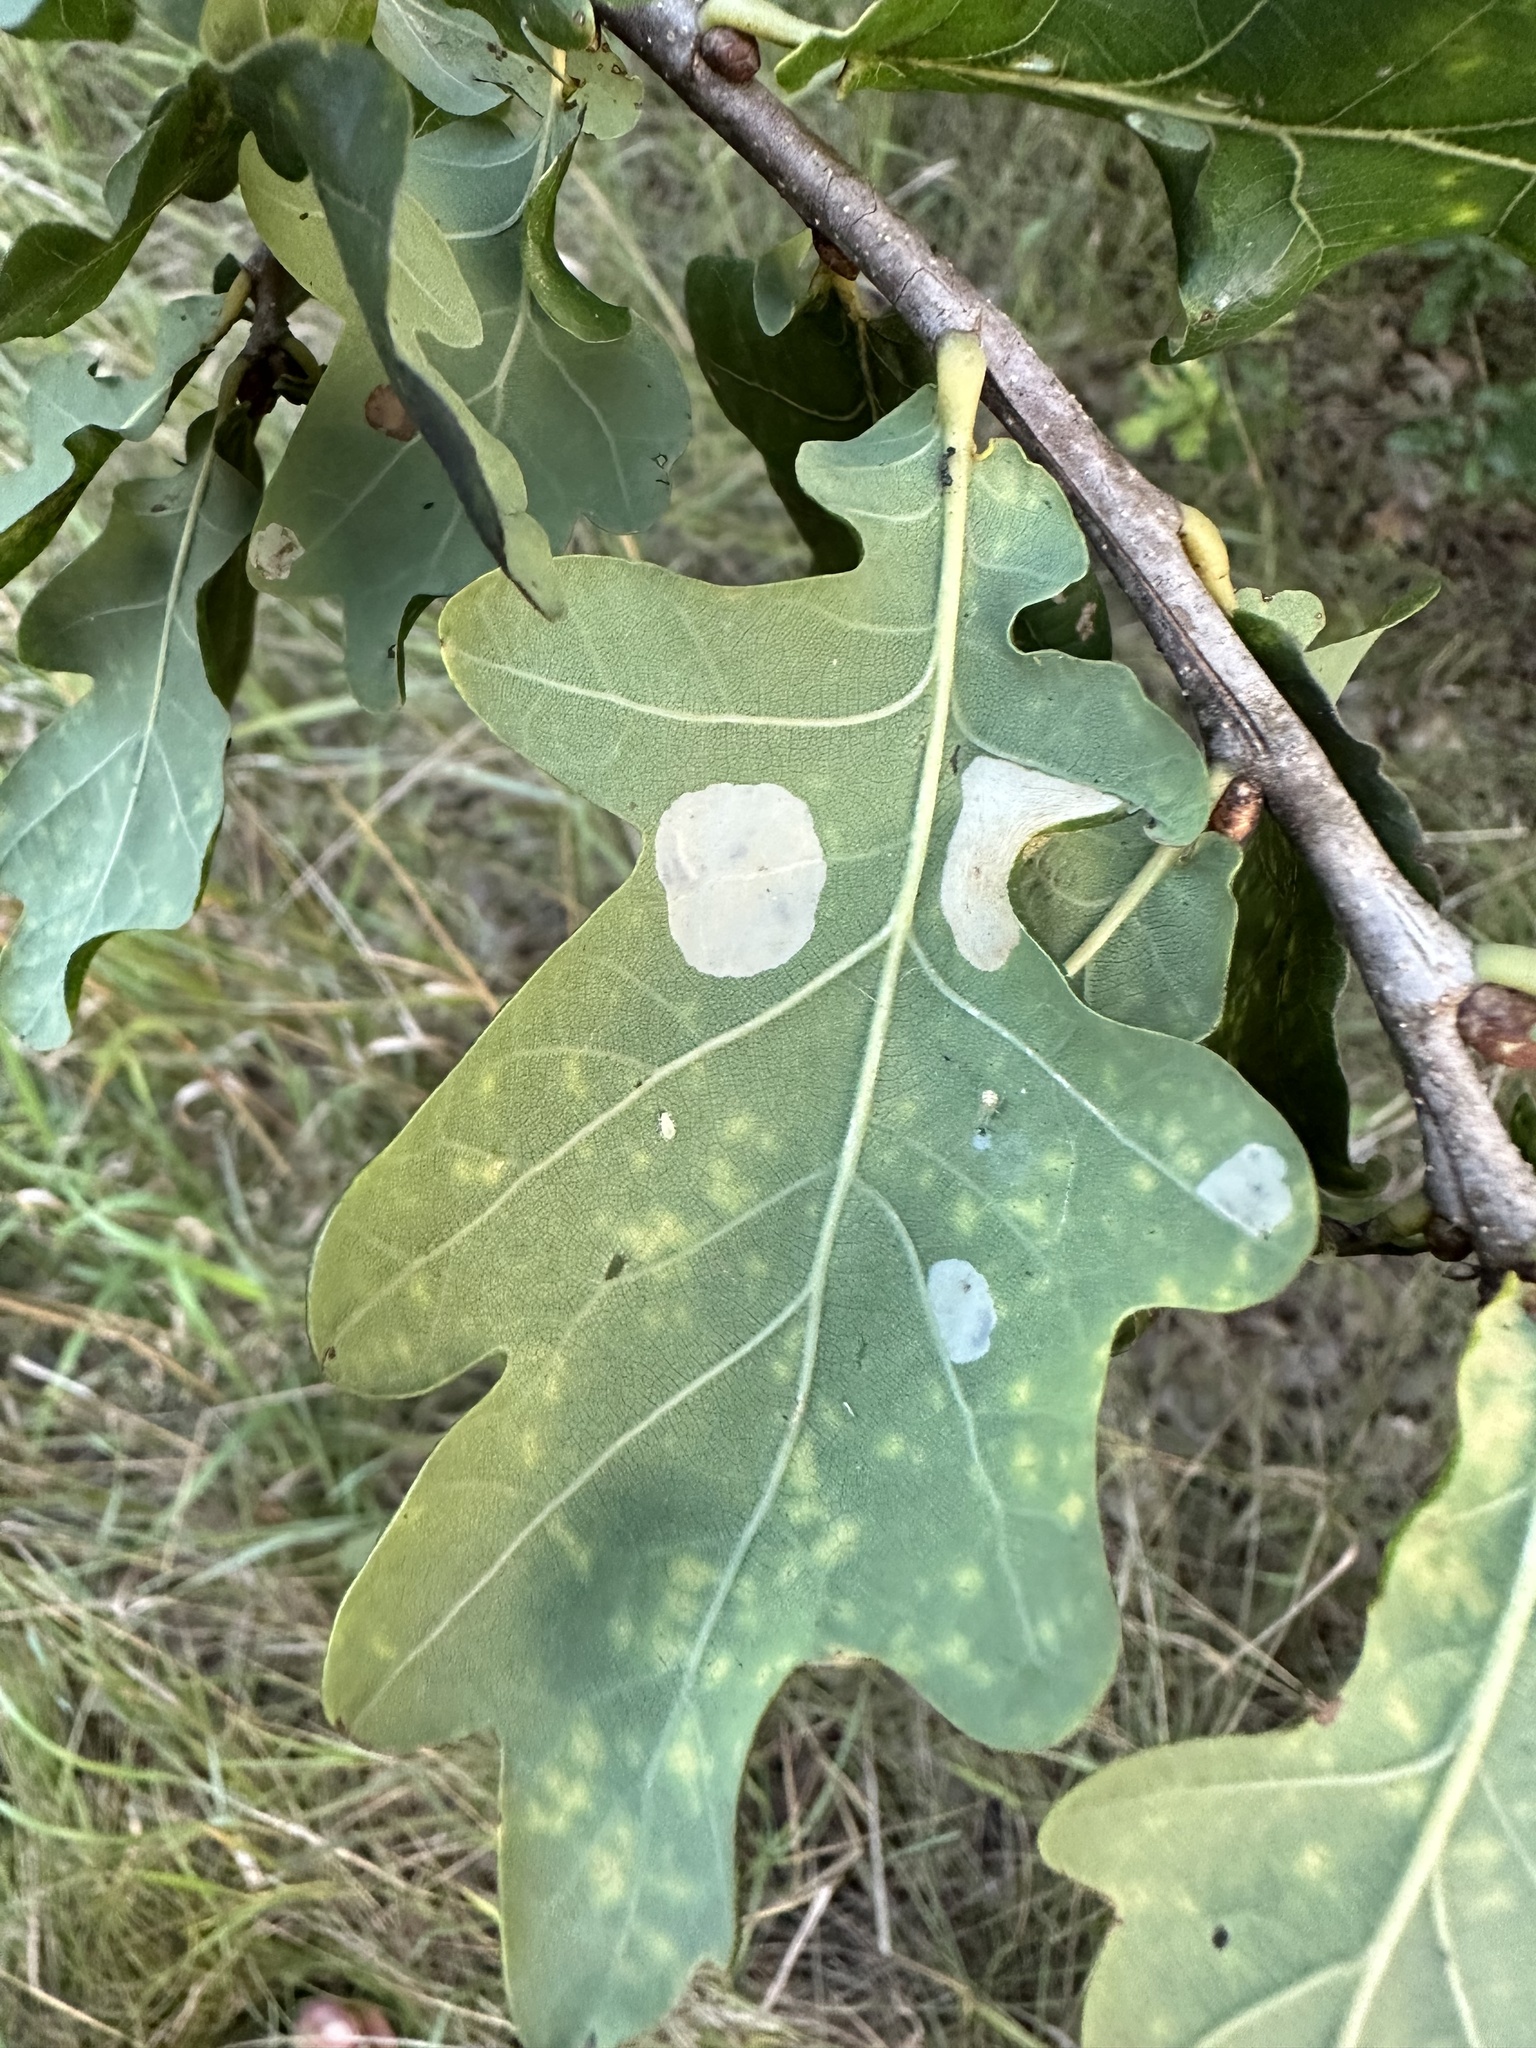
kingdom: Animalia
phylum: Arthropoda
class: Insecta
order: Lepidoptera
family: Tischeriidae
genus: Tischeria
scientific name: Tischeria ekebladella
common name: Oak carl
